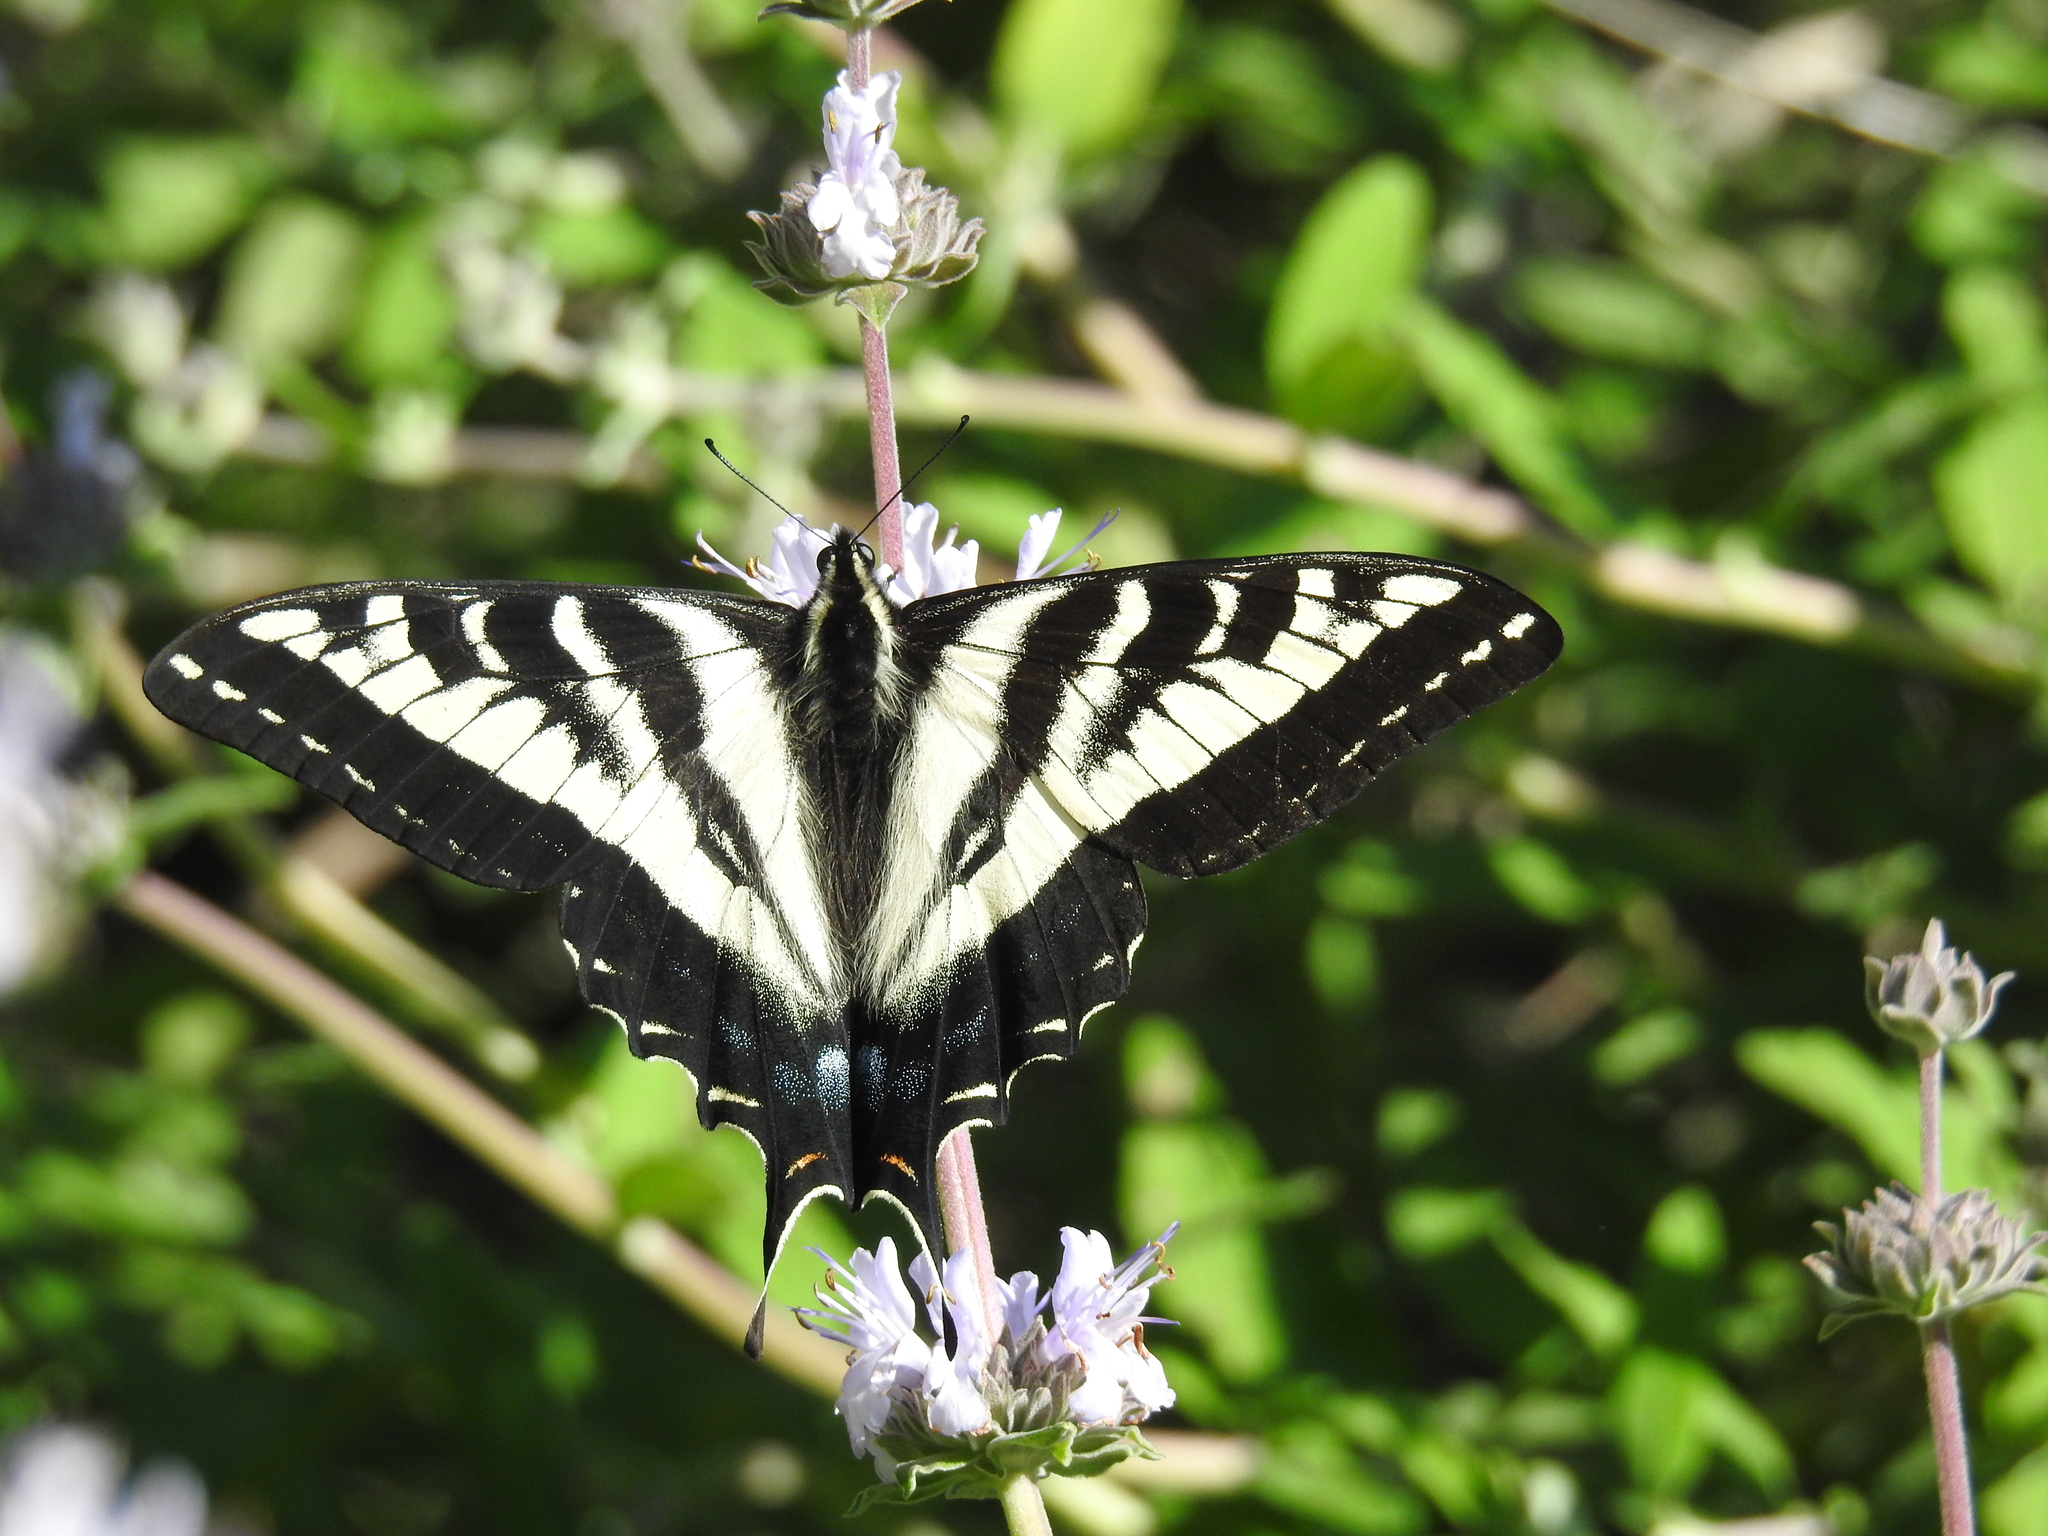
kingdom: Animalia
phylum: Arthropoda
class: Insecta
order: Lepidoptera
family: Papilionidae
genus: Papilio
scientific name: Papilio eurymedon
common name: Pale tiger swallowtail
